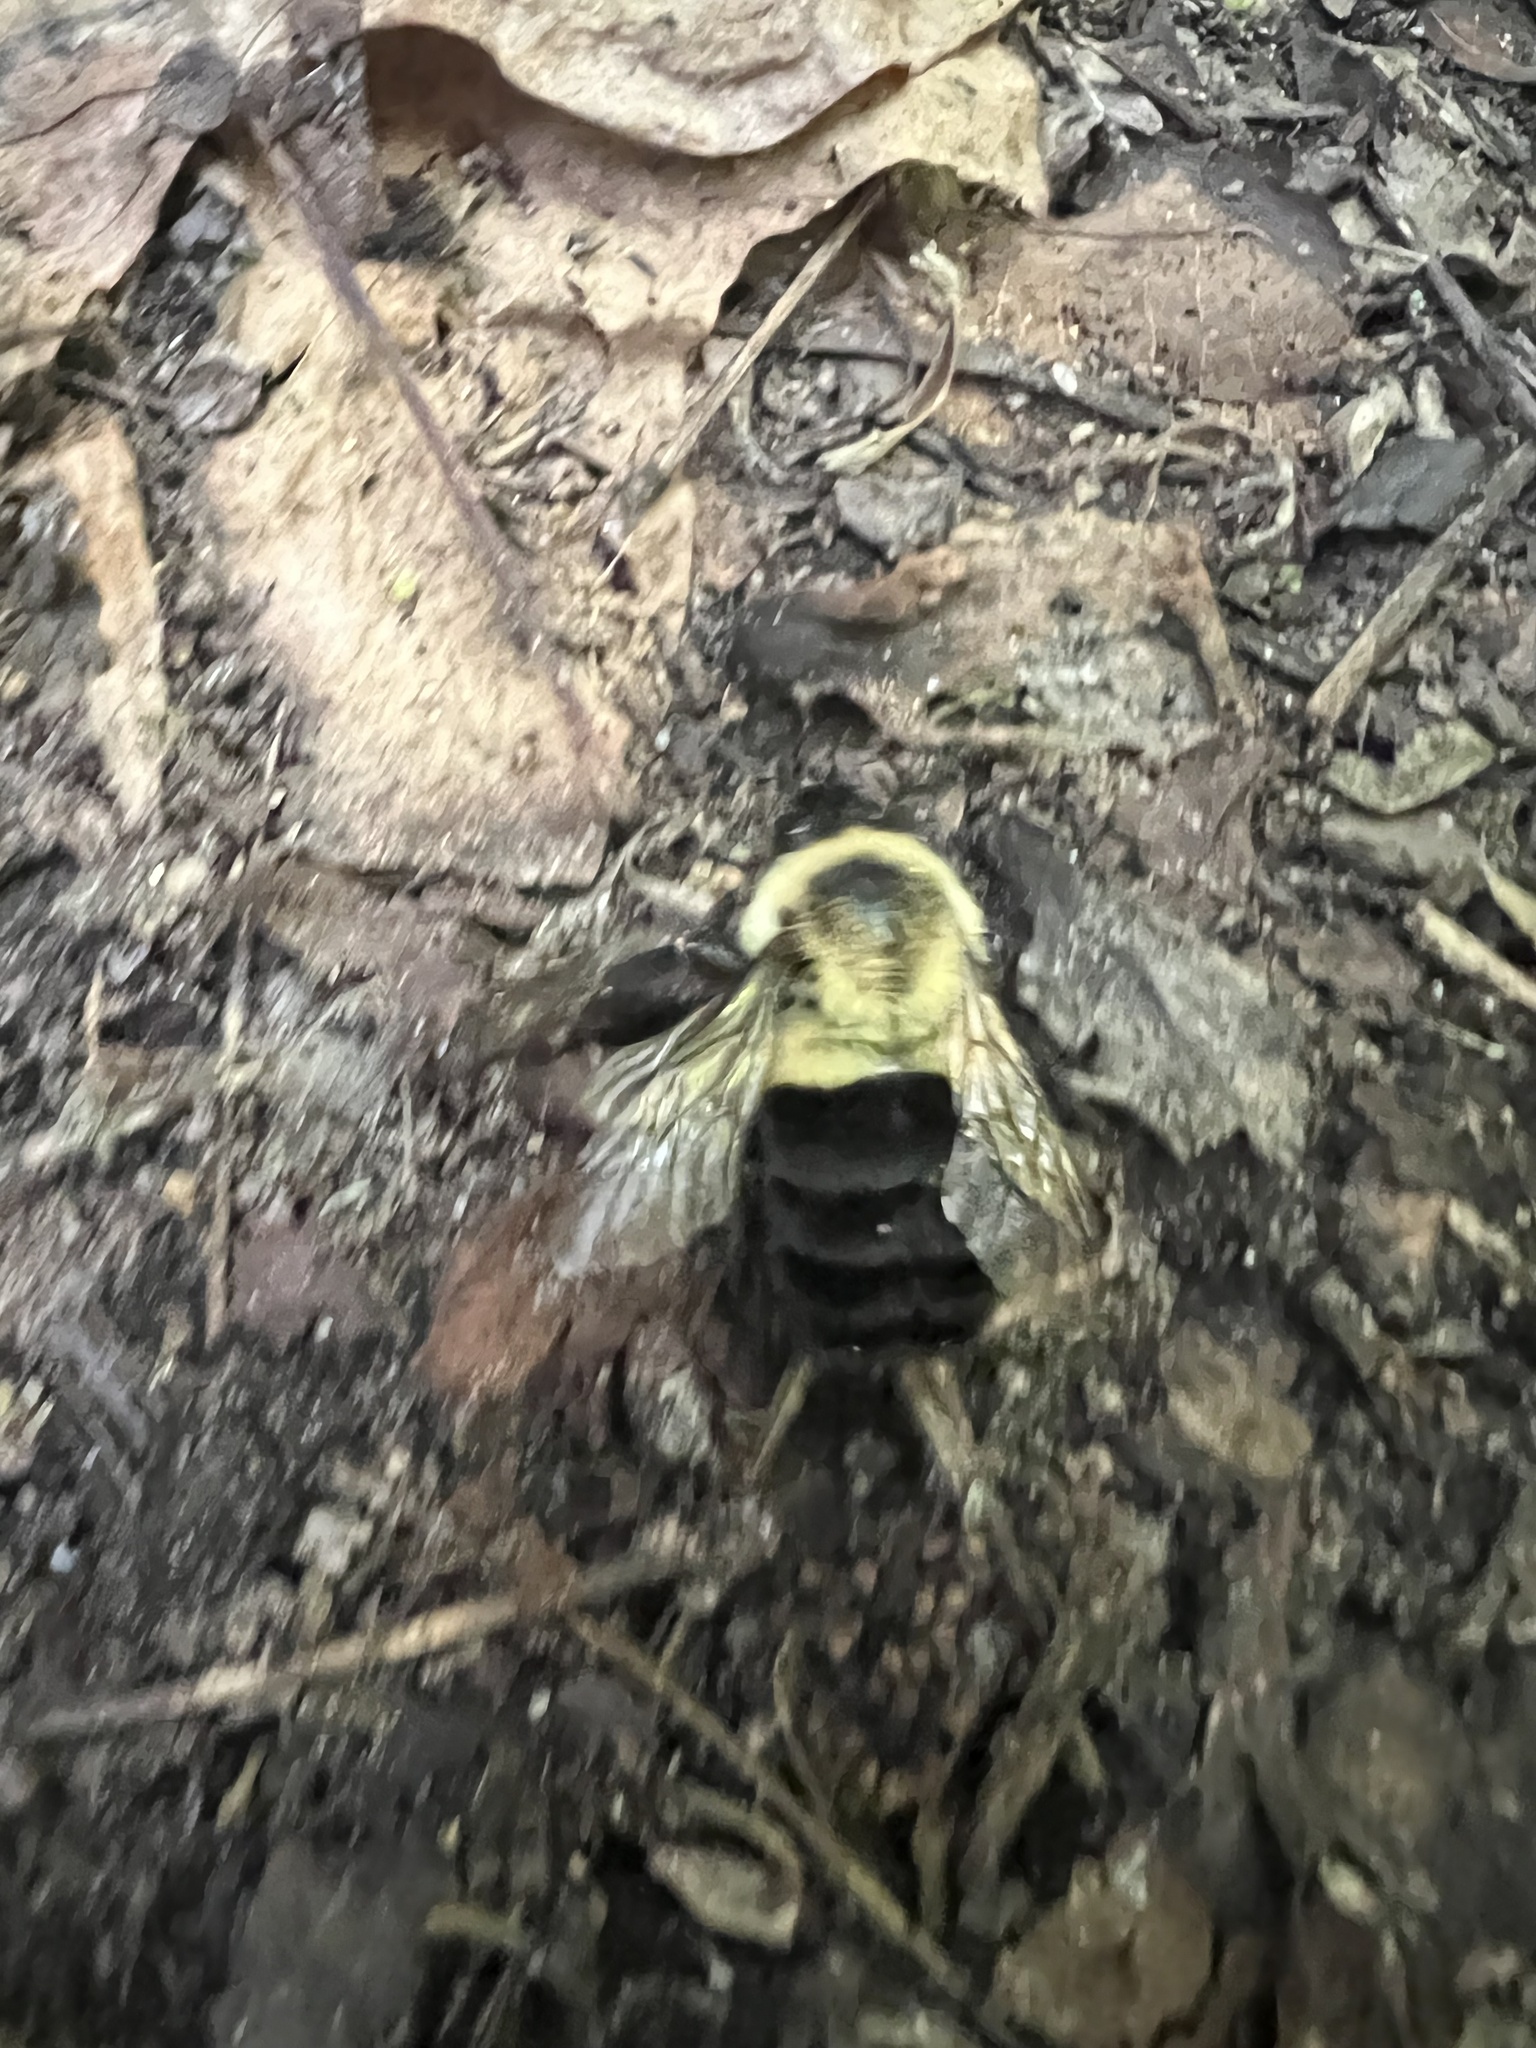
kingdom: Animalia
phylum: Arthropoda
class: Insecta
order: Hymenoptera
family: Apidae
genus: Bombus
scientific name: Bombus impatiens
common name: Common eastern bumble bee
